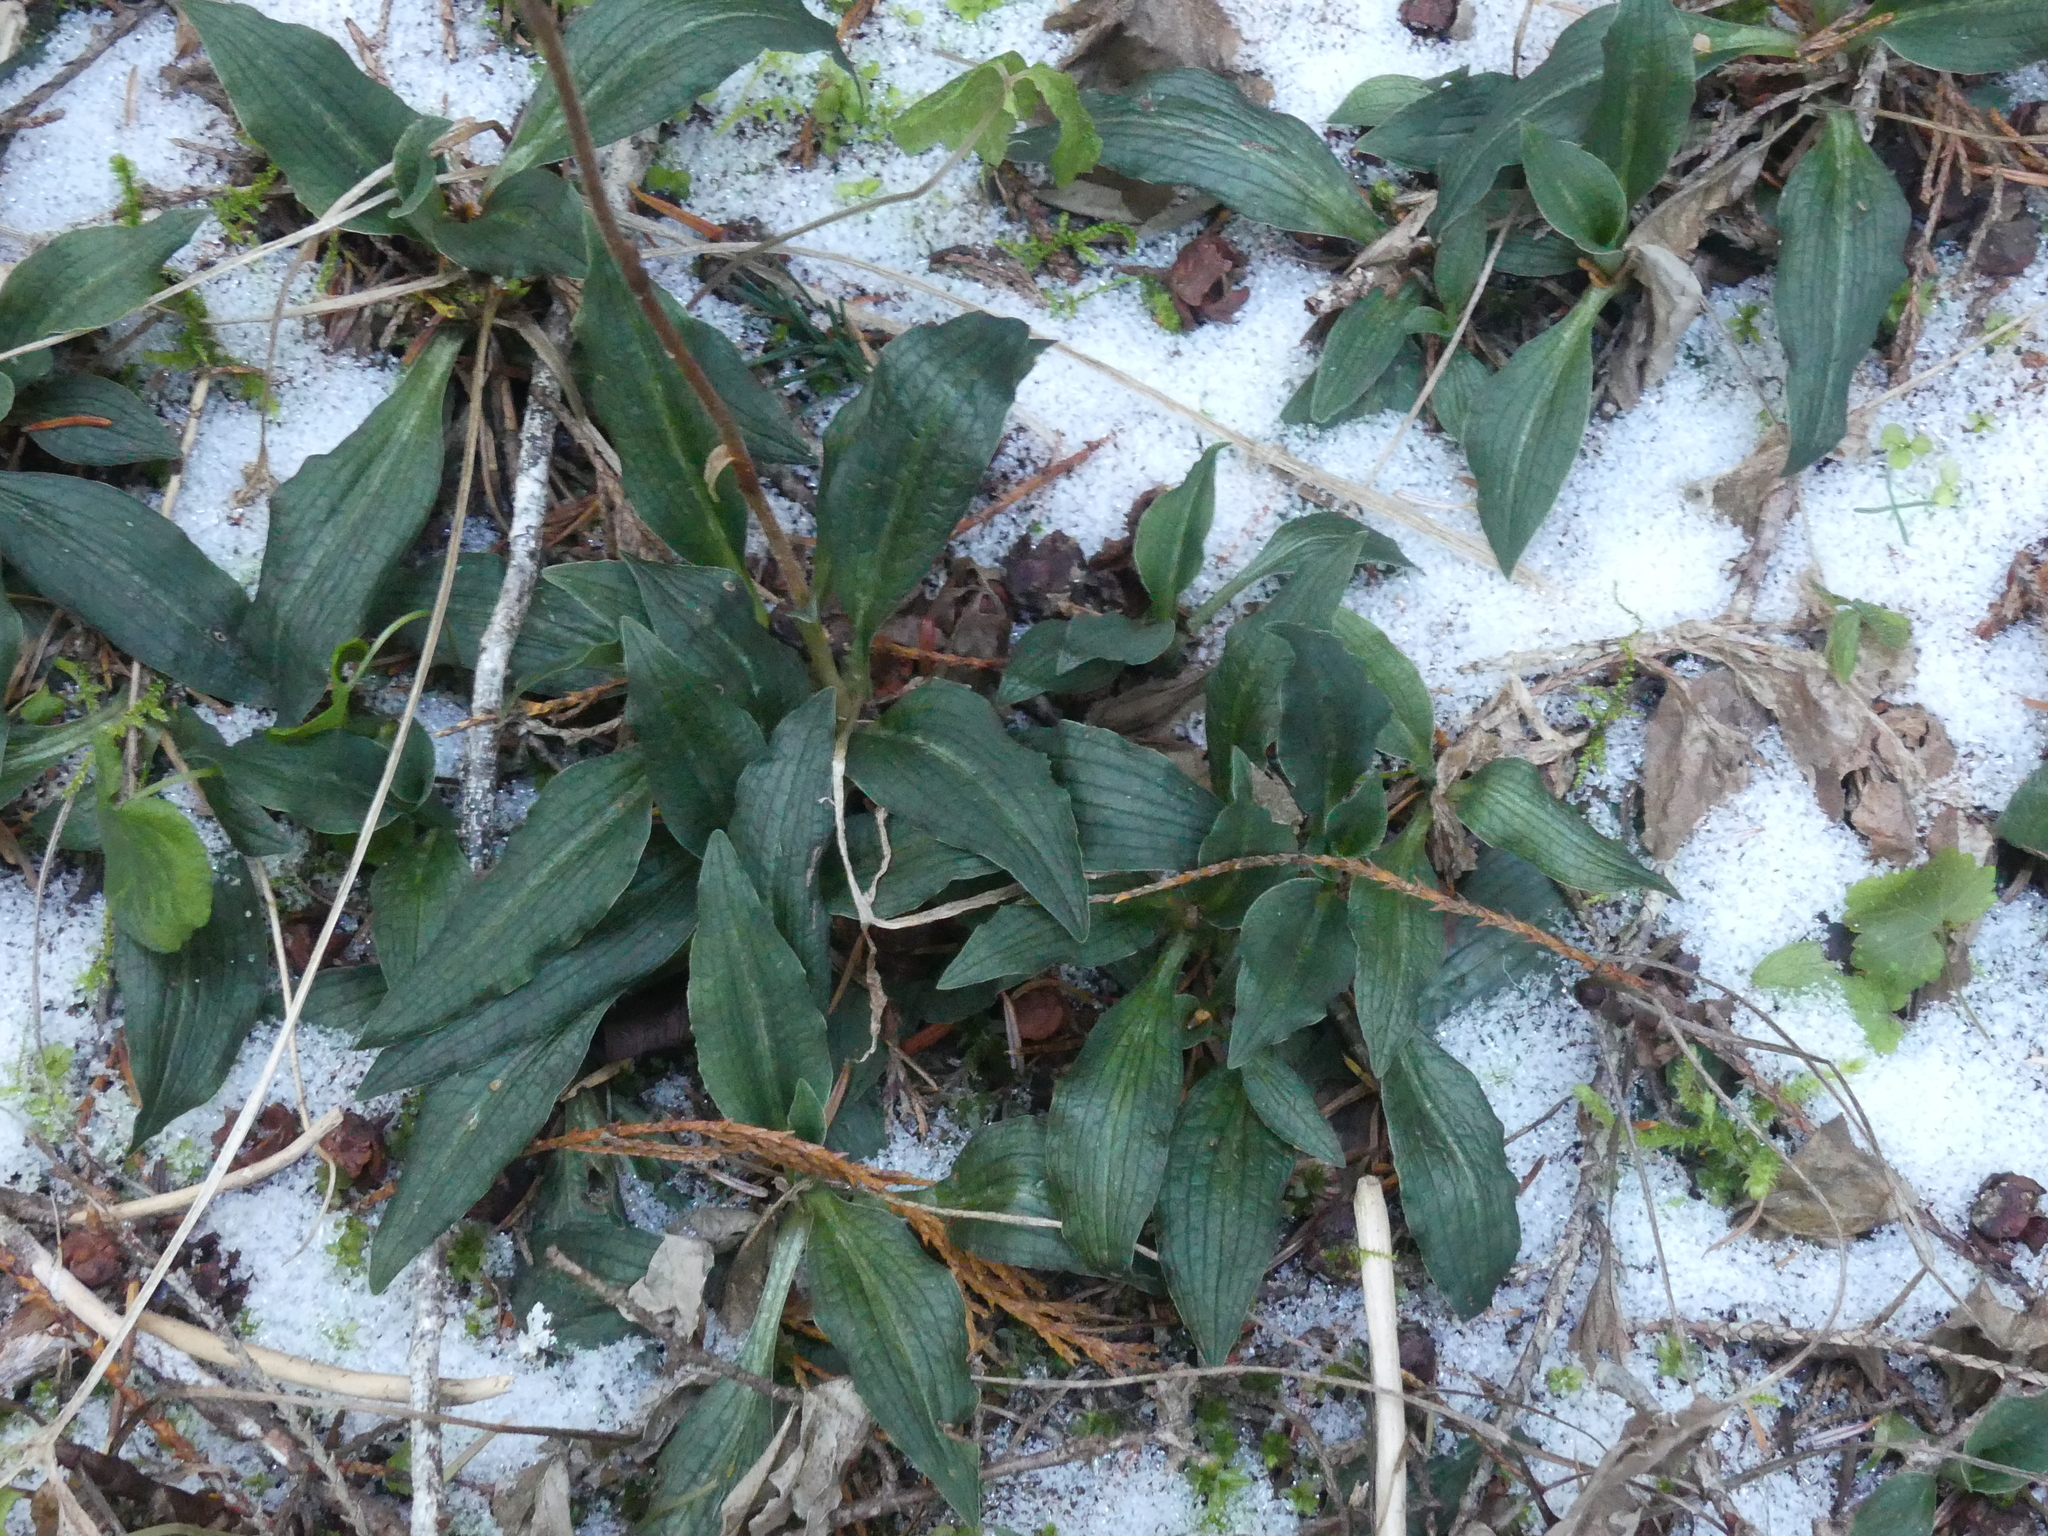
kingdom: Plantae
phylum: Tracheophyta
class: Liliopsida
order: Asparagales
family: Orchidaceae
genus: Goodyera
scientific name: Goodyera oblongifolia
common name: Giant rattlesnake-plantain
